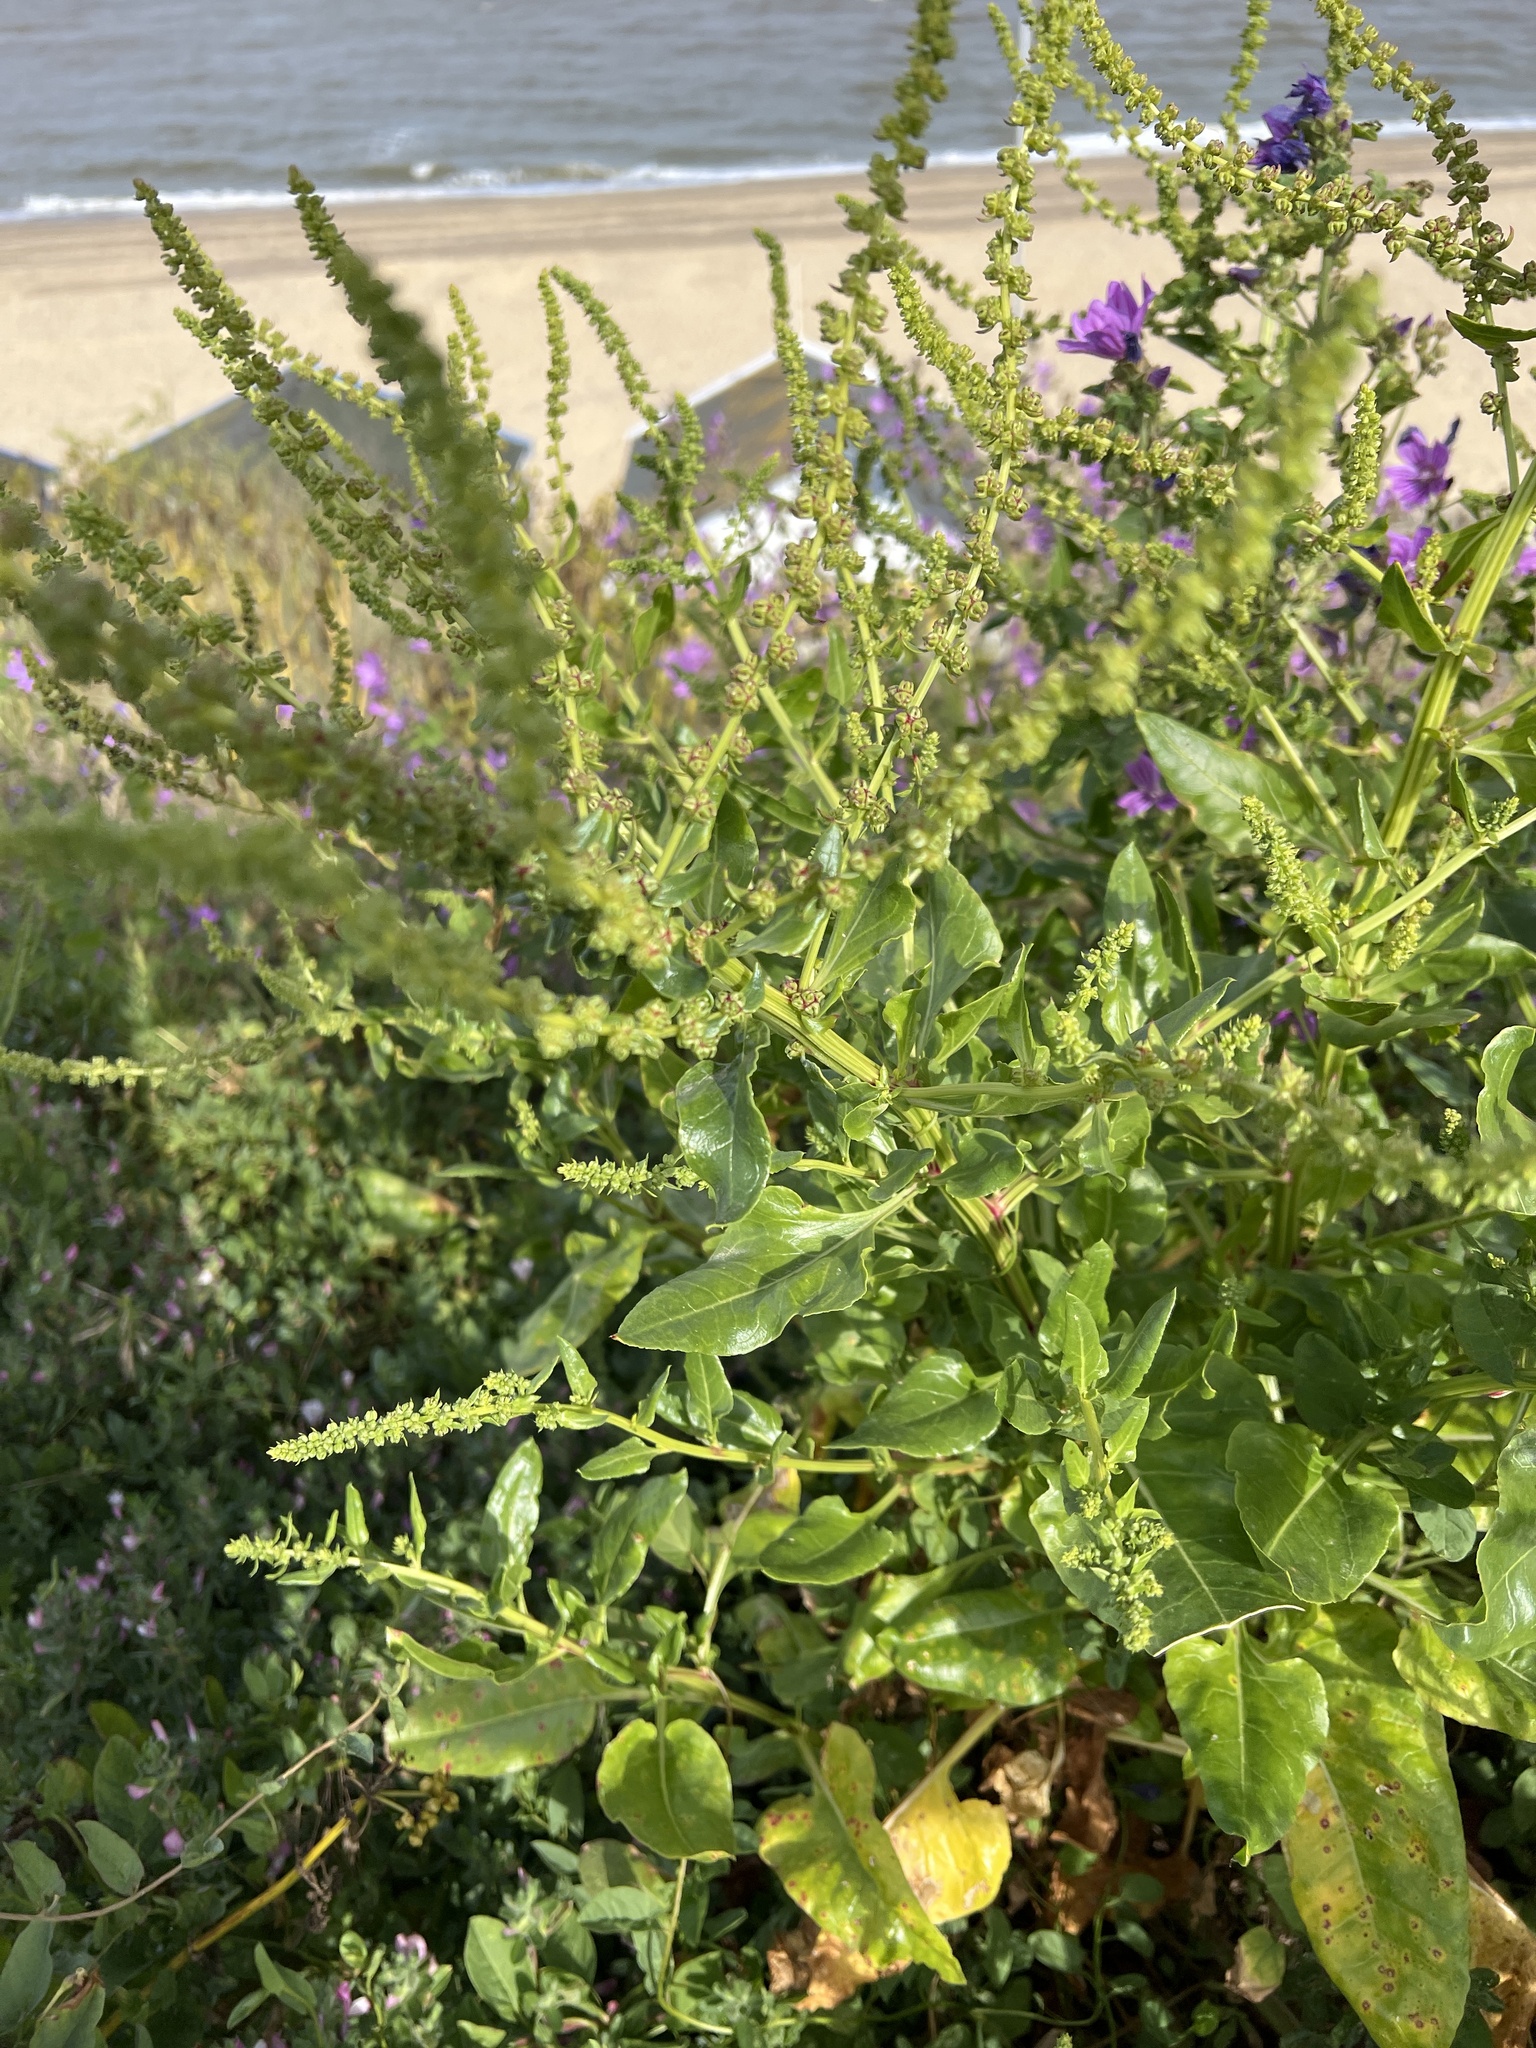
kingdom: Plantae
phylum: Tracheophyta
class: Magnoliopsida
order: Caryophyllales
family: Amaranthaceae
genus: Beta
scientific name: Beta vulgaris
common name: Beet
